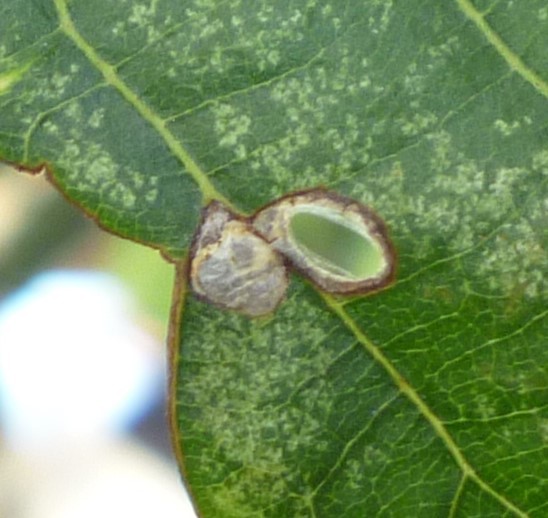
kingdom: Animalia
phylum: Arthropoda
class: Insecta
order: Lepidoptera
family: Heliozelidae
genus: Coptodisca
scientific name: Coptodisca lucifluella
